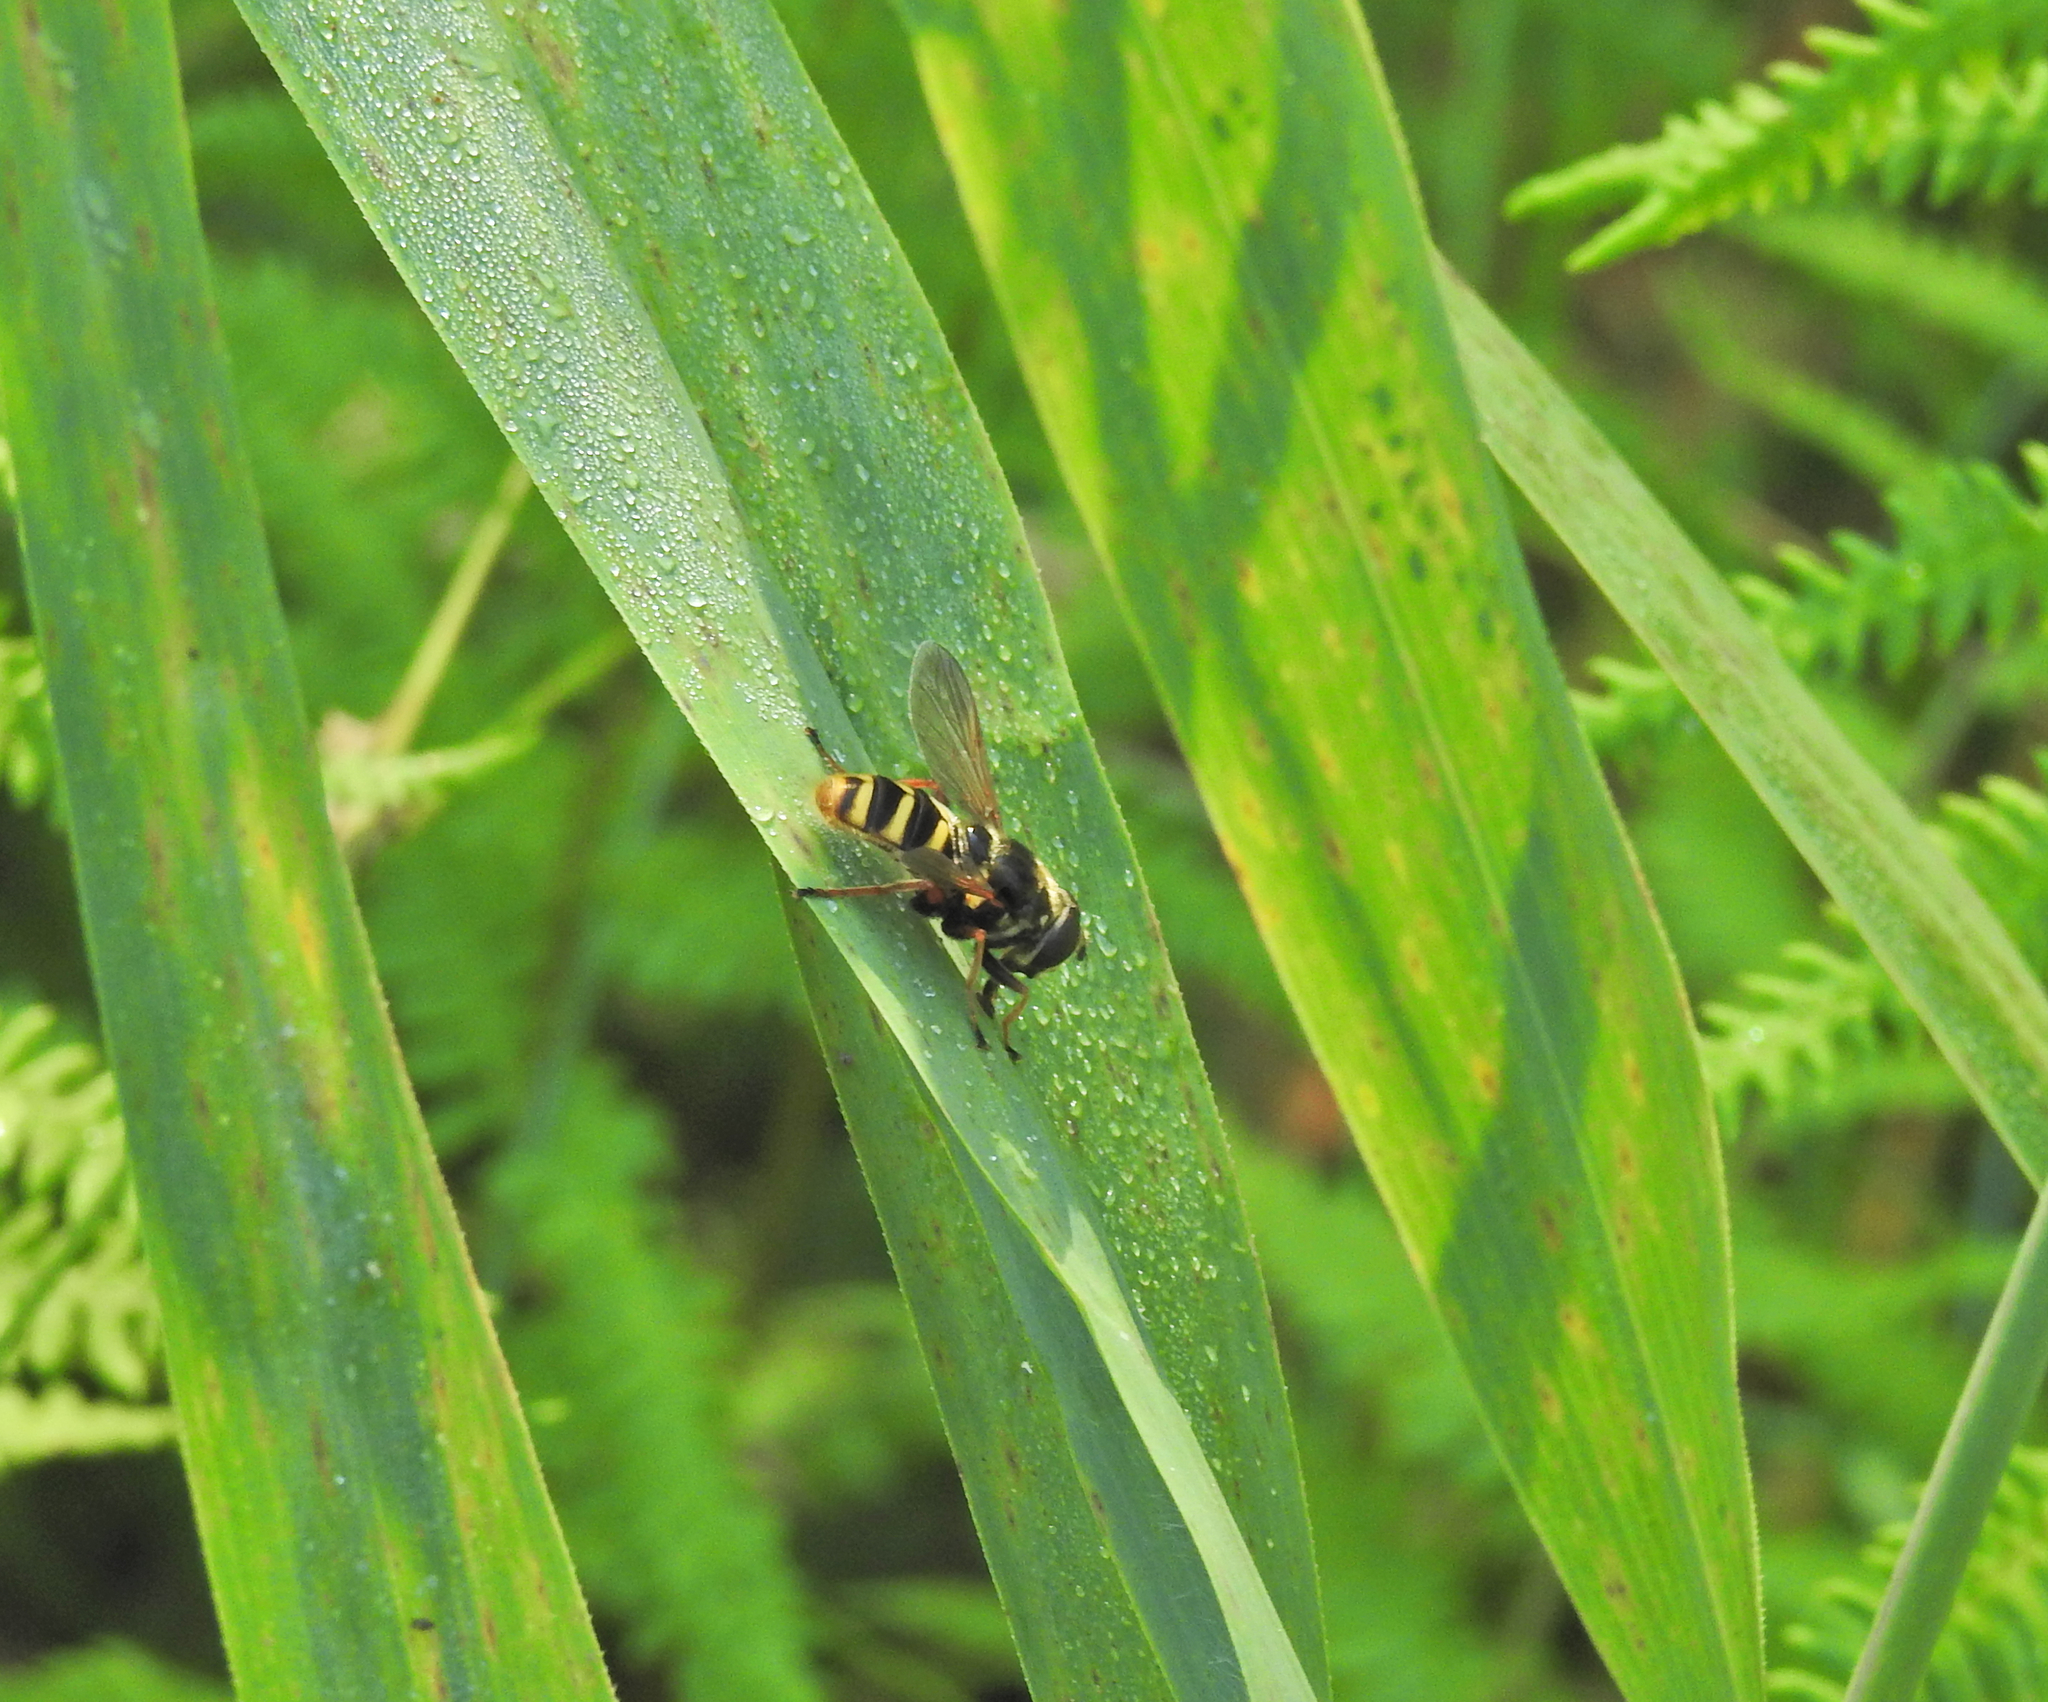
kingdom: Animalia
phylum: Arthropoda
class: Insecta
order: Diptera
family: Syrphidae
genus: Sericomyia
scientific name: Sericomyia silentis
